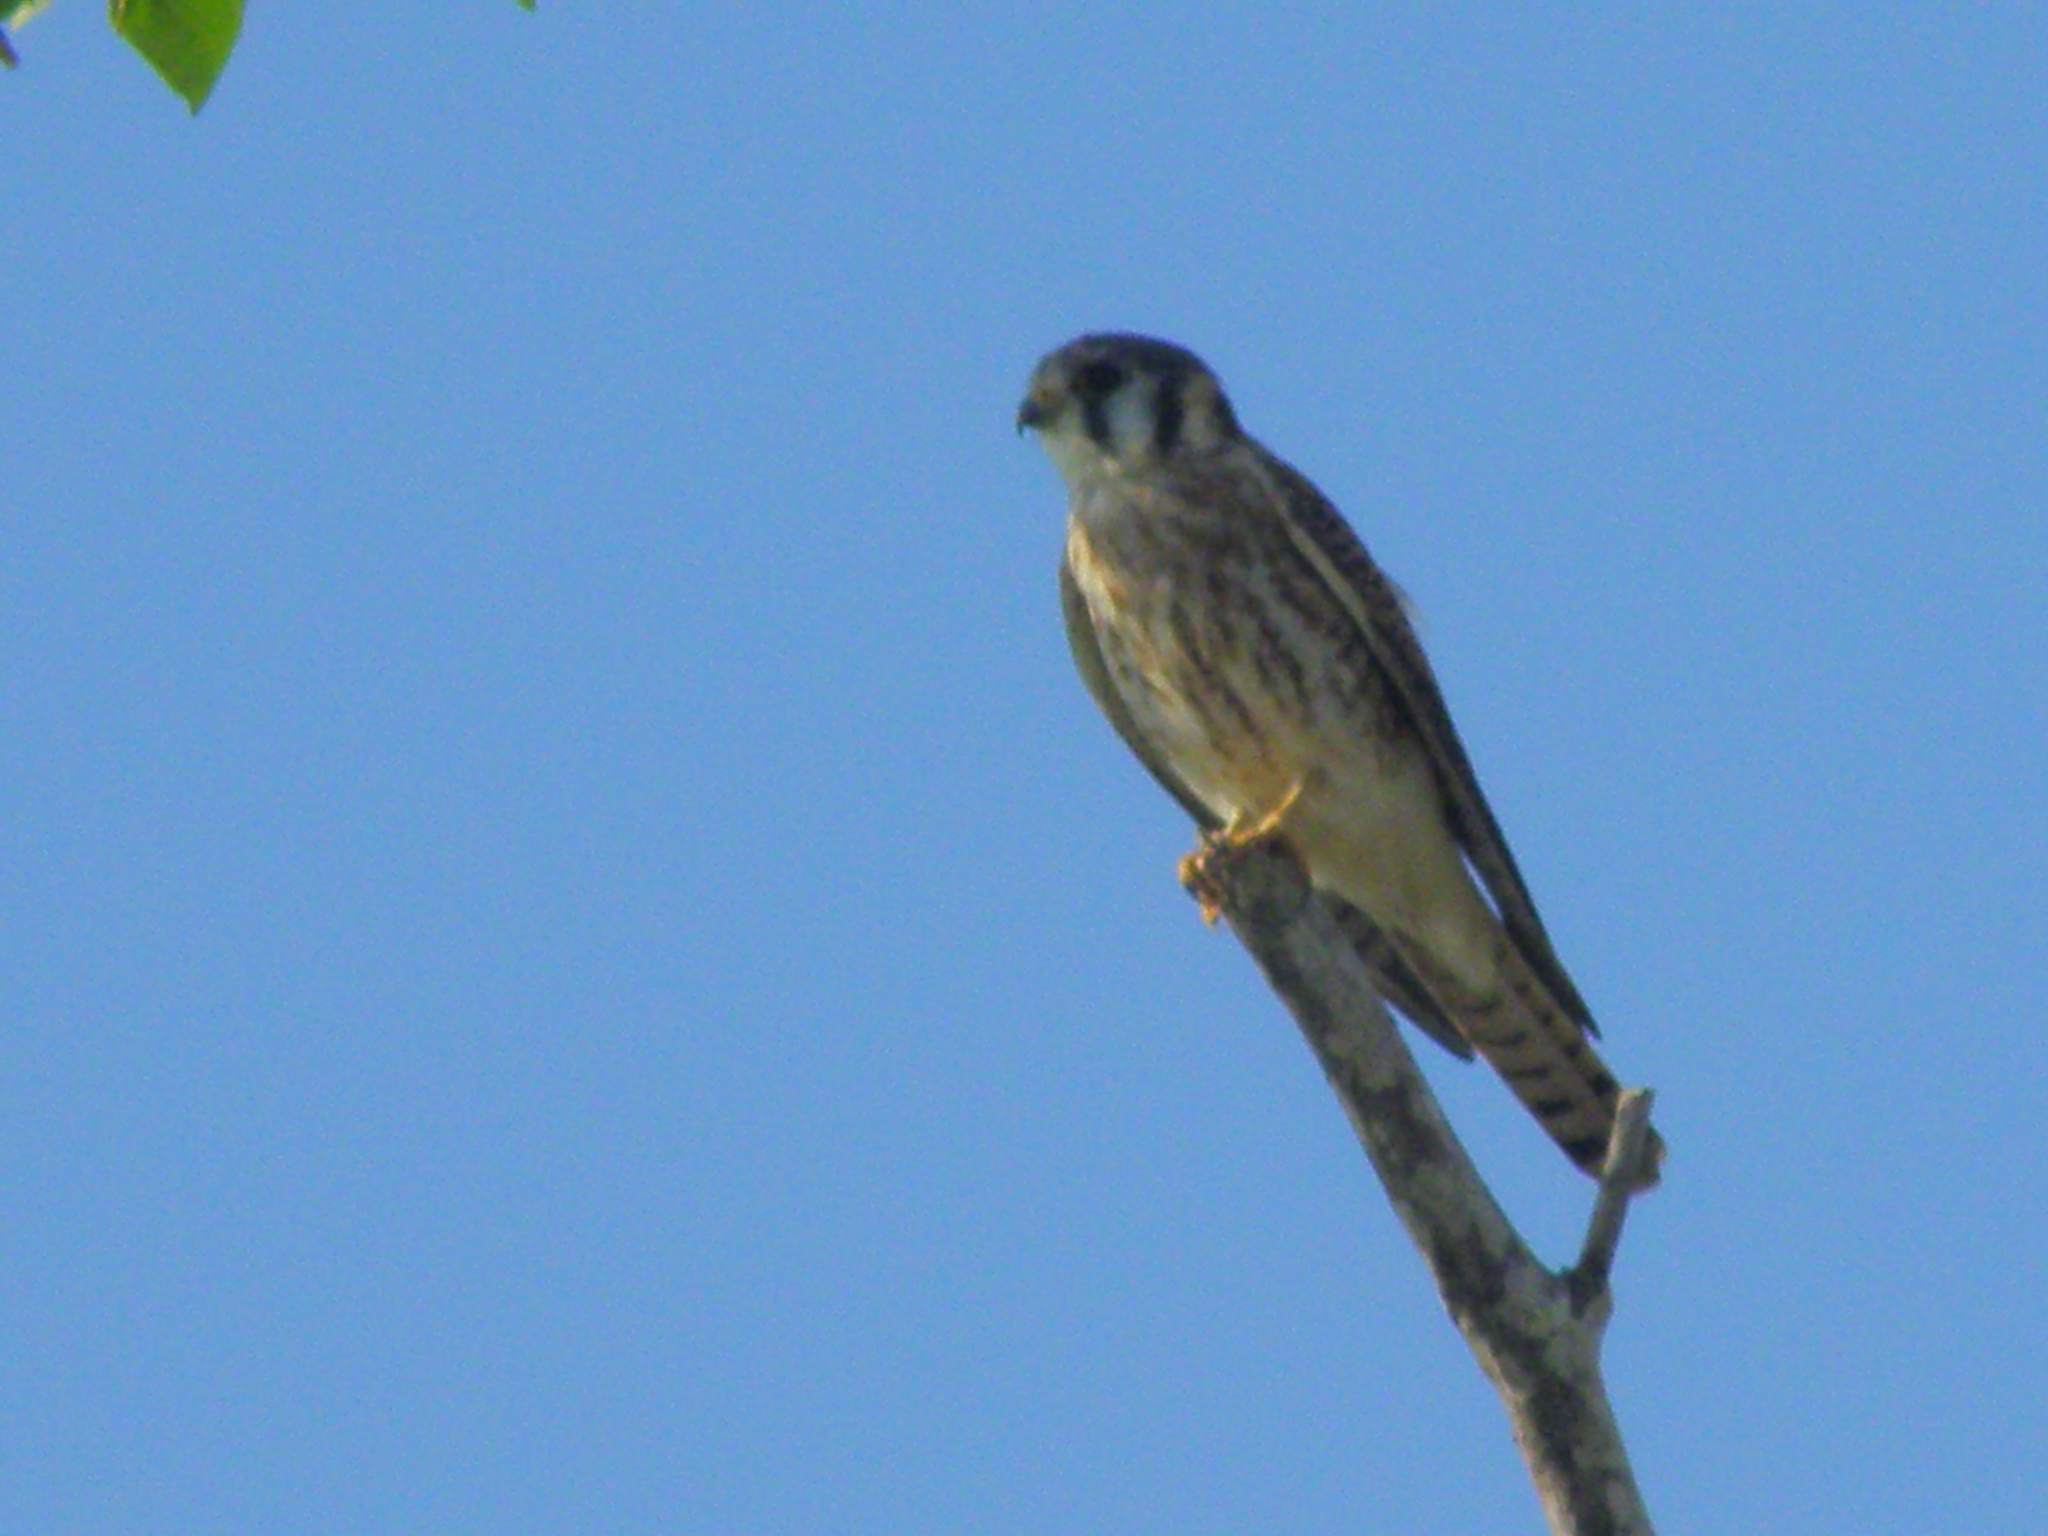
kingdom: Animalia
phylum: Chordata
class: Aves
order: Falconiformes
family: Falconidae
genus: Falco
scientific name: Falco sparverius
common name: American kestrel
